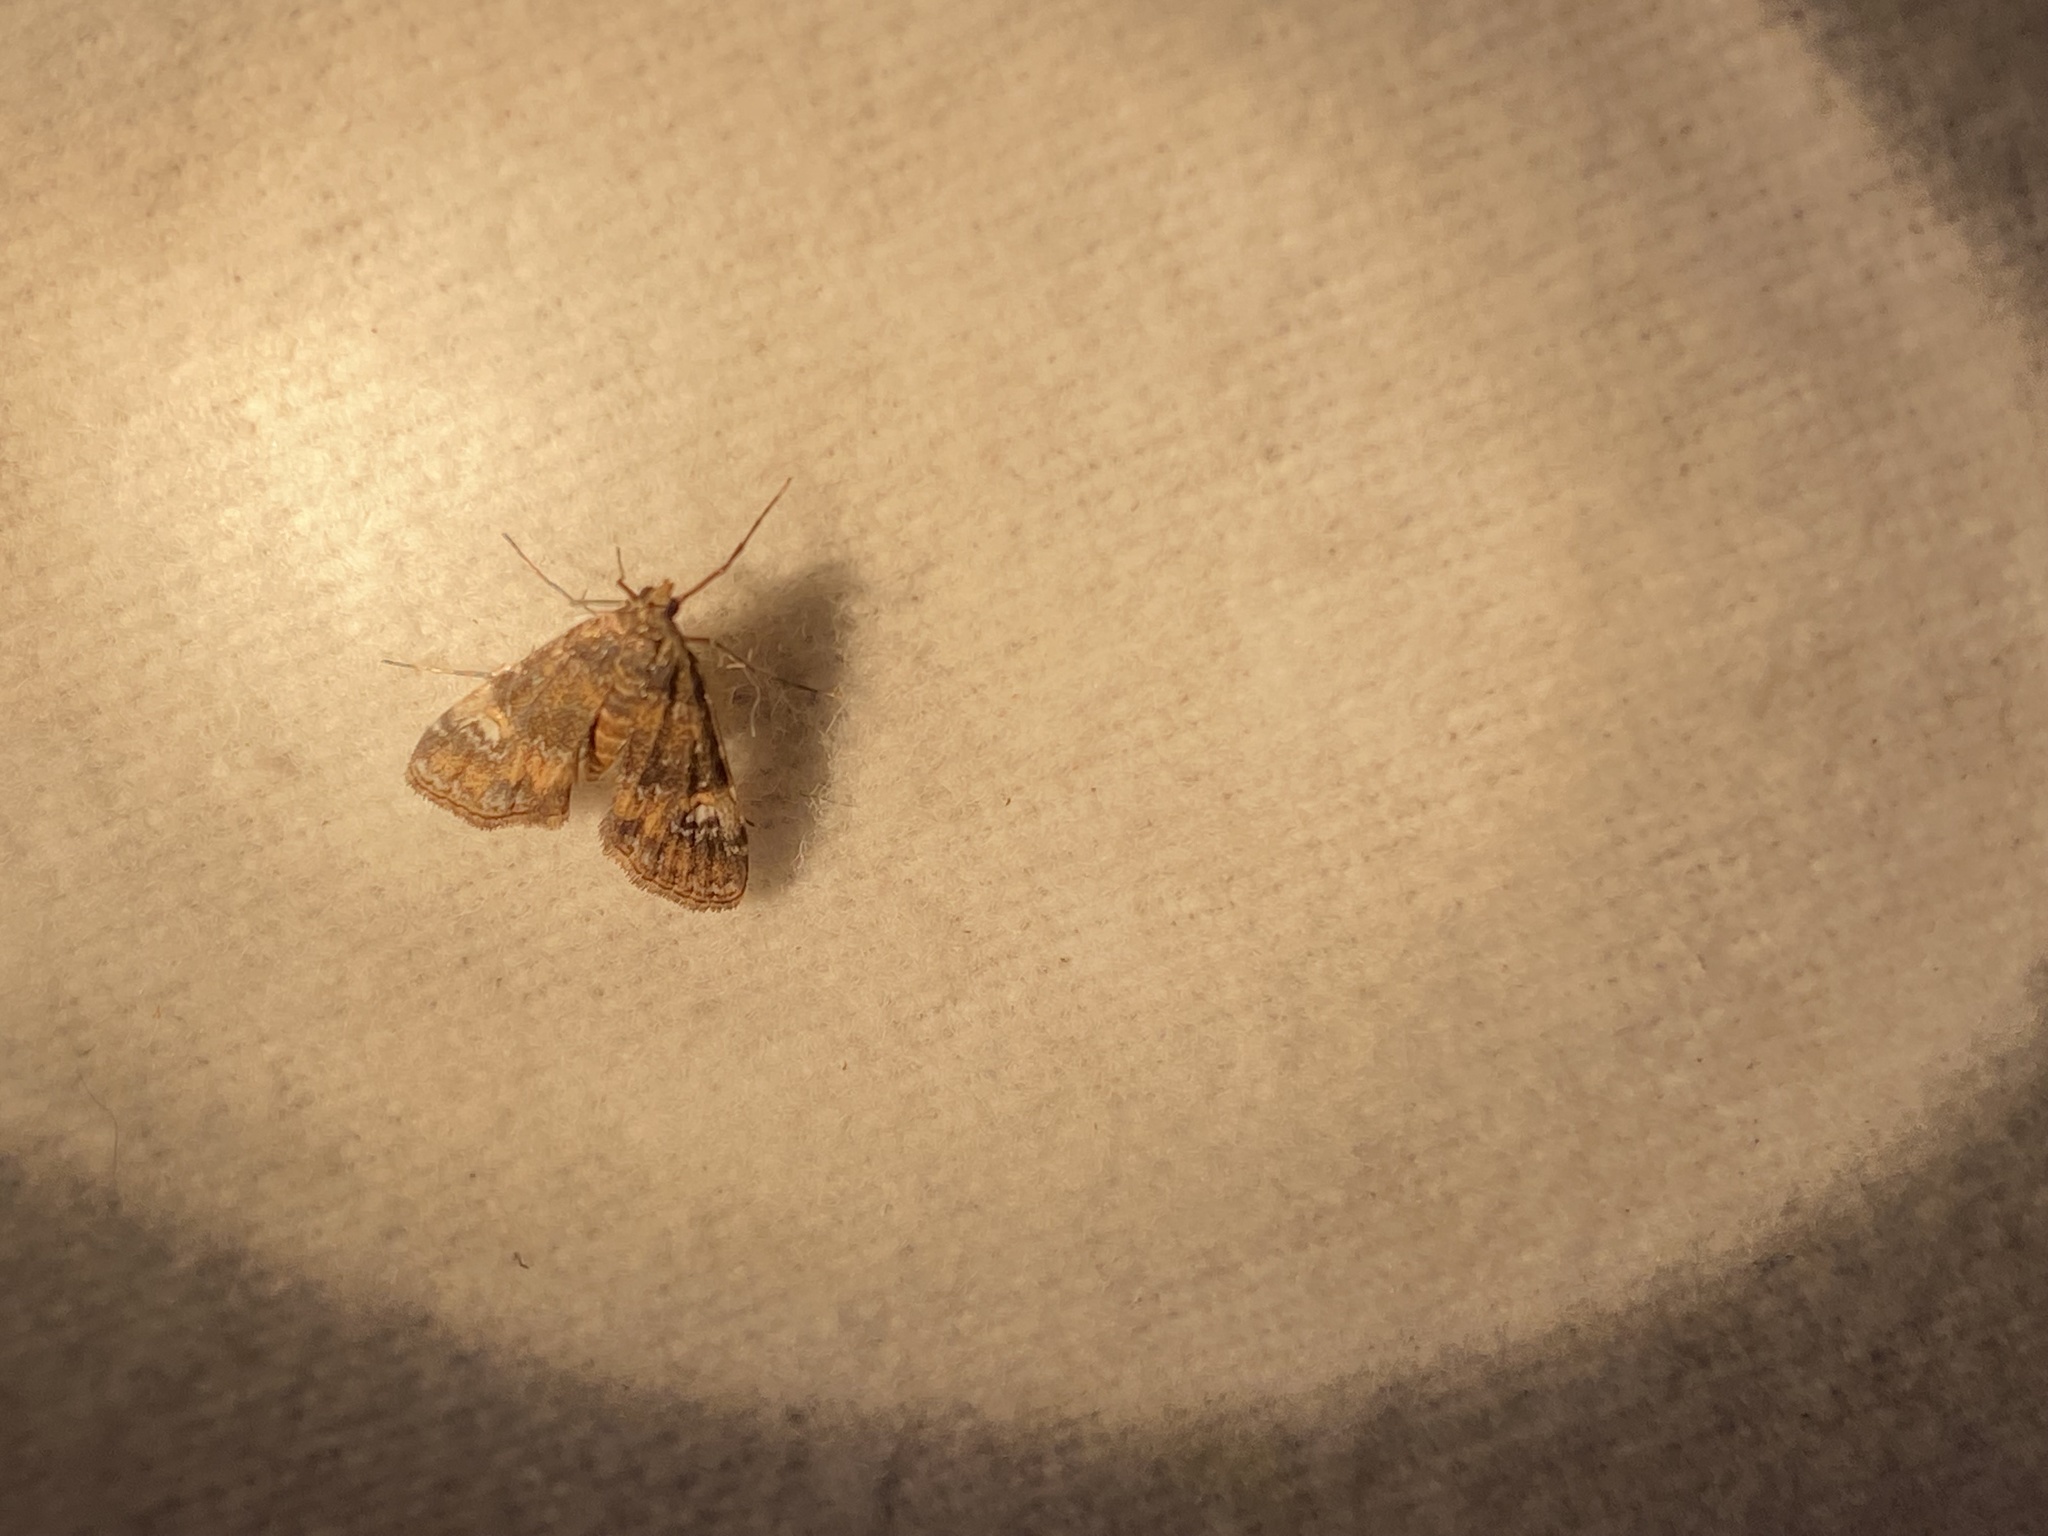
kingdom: Animalia
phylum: Arthropoda
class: Insecta
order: Lepidoptera
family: Crambidae
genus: Elophila
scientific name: Elophila obliteralis
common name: Waterlily leafcutter moth
